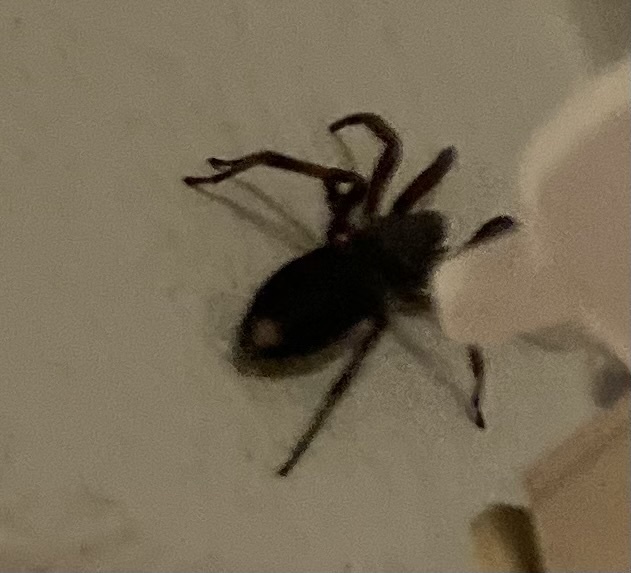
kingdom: Animalia
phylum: Arthropoda
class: Arachnida
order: Araneae
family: Lamponidae
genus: Lampona
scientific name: Lampona murina
